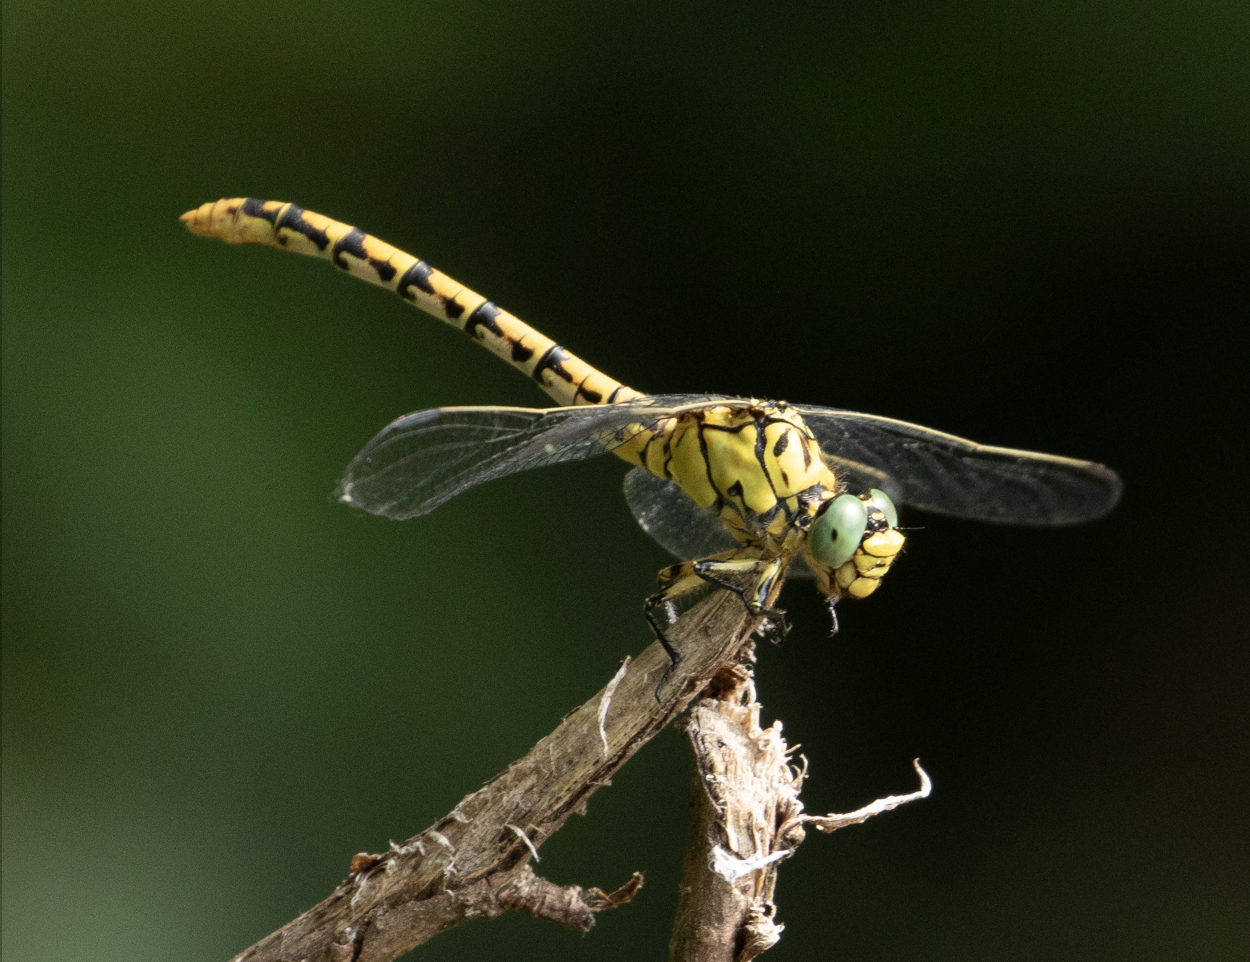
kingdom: Animalia
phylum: Arthropoda
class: Insecta
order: Odonata
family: Gomphidae
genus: Onychogomphus
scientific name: Onychogomphus forcipatus
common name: Small pincertail
